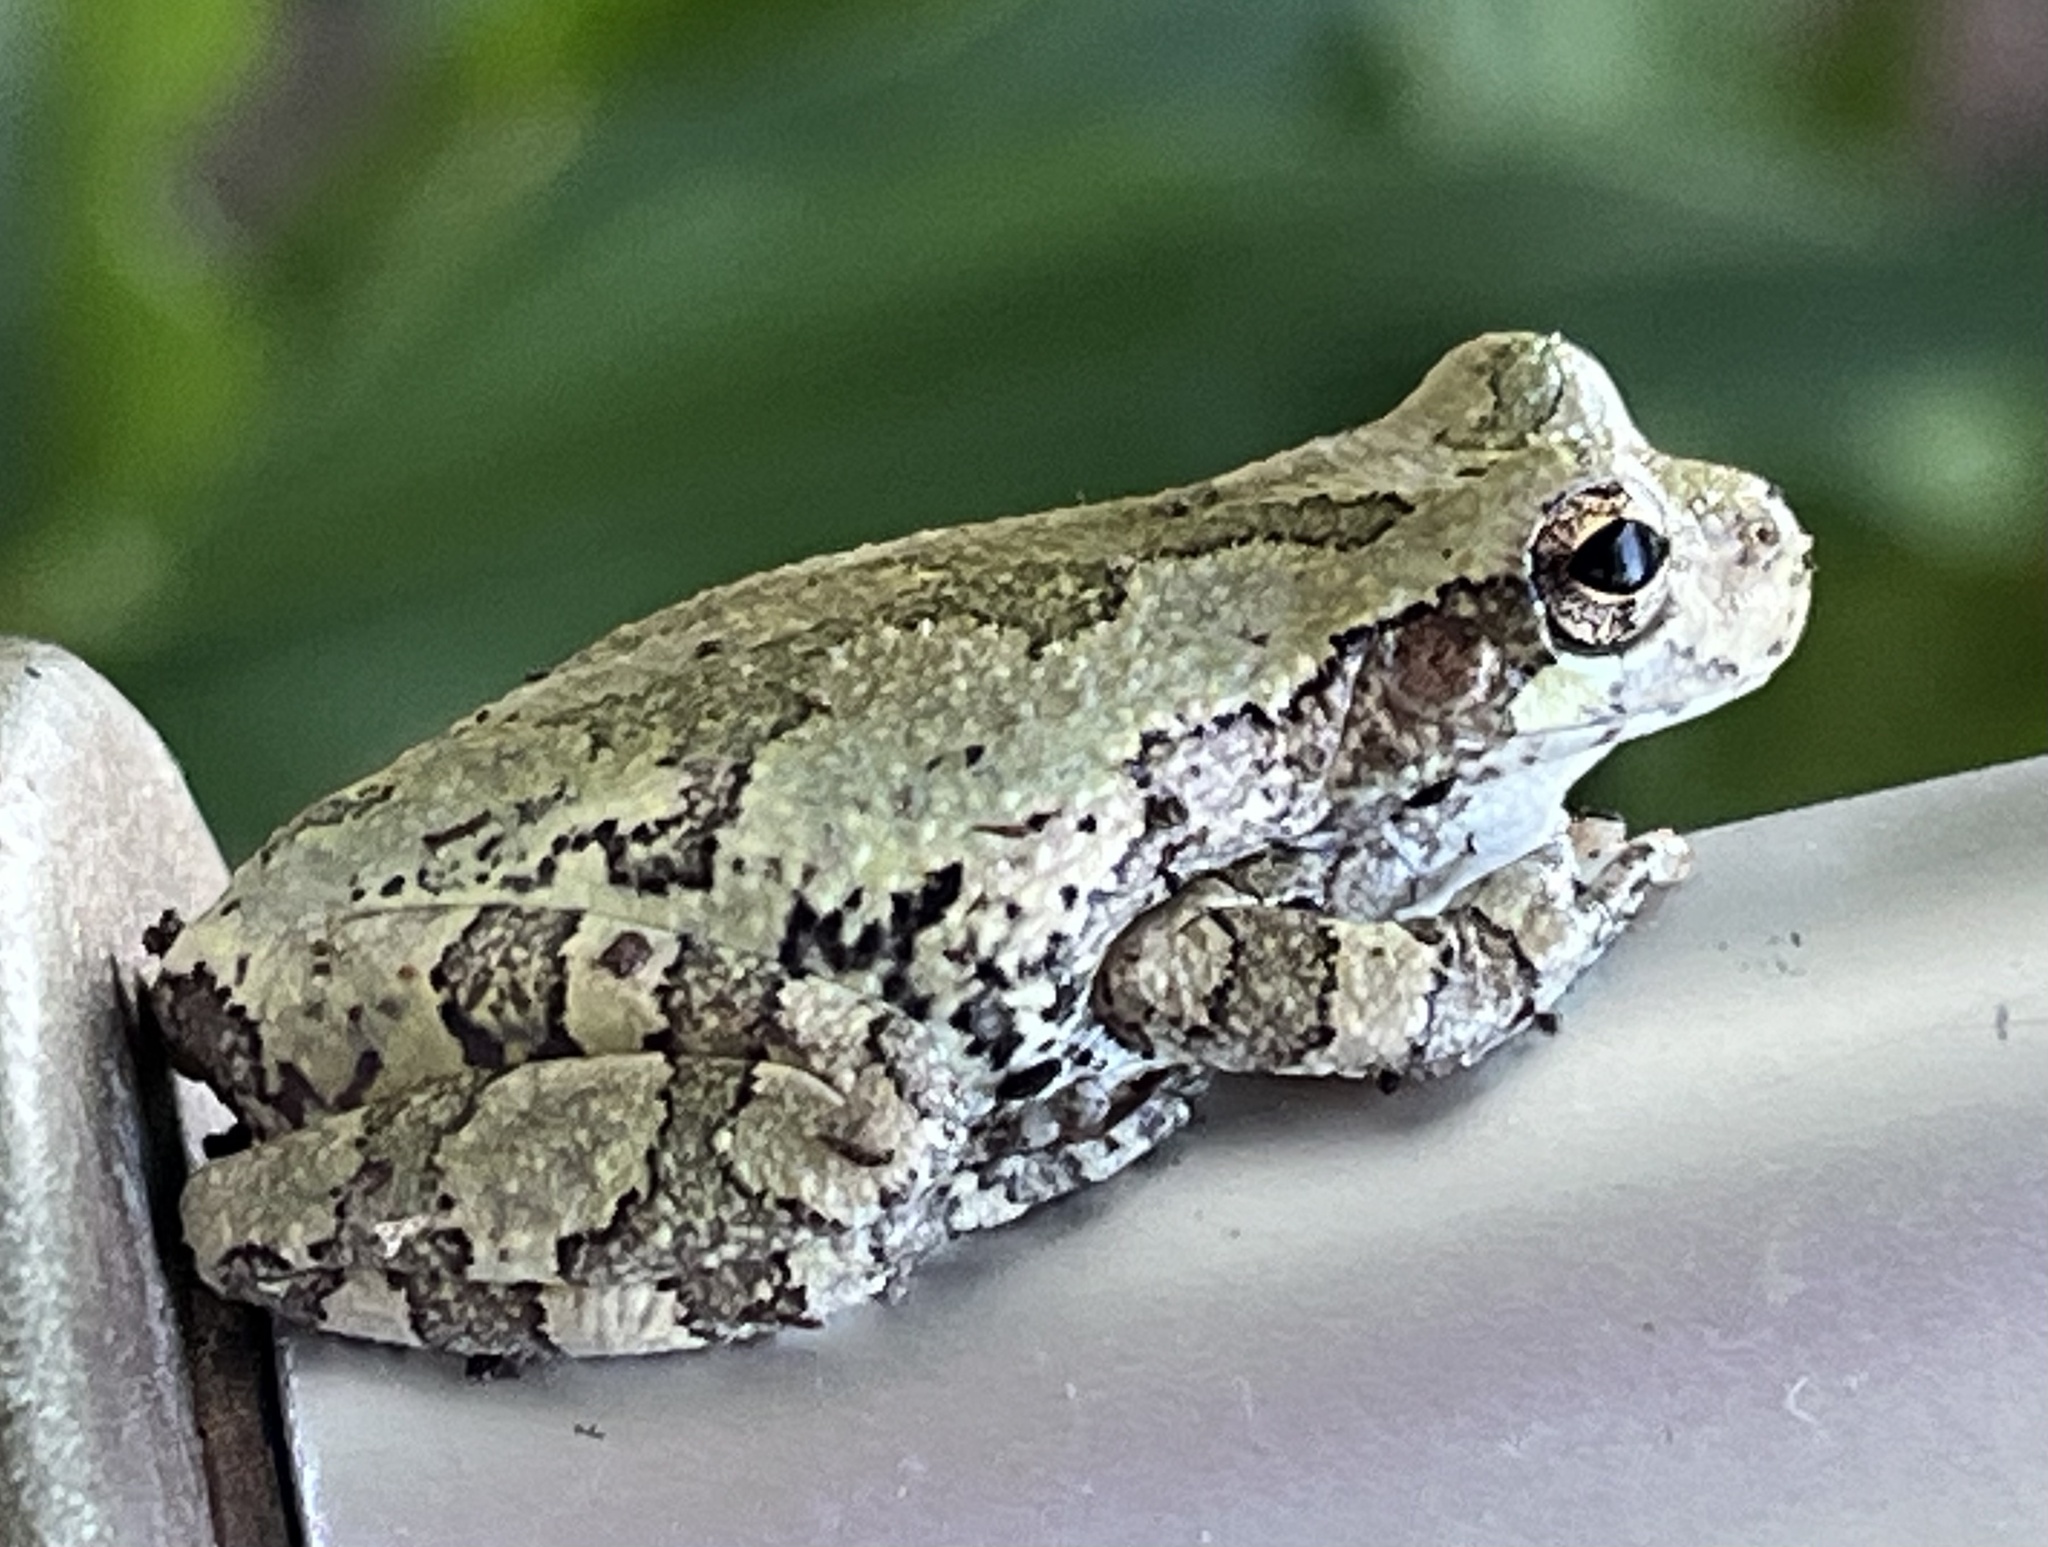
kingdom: Animalia
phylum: Chordata
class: Amphibia
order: Anura
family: Hylidae
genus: Dryophytes
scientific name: Dryophytes versicolor
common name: Gray treefrog
